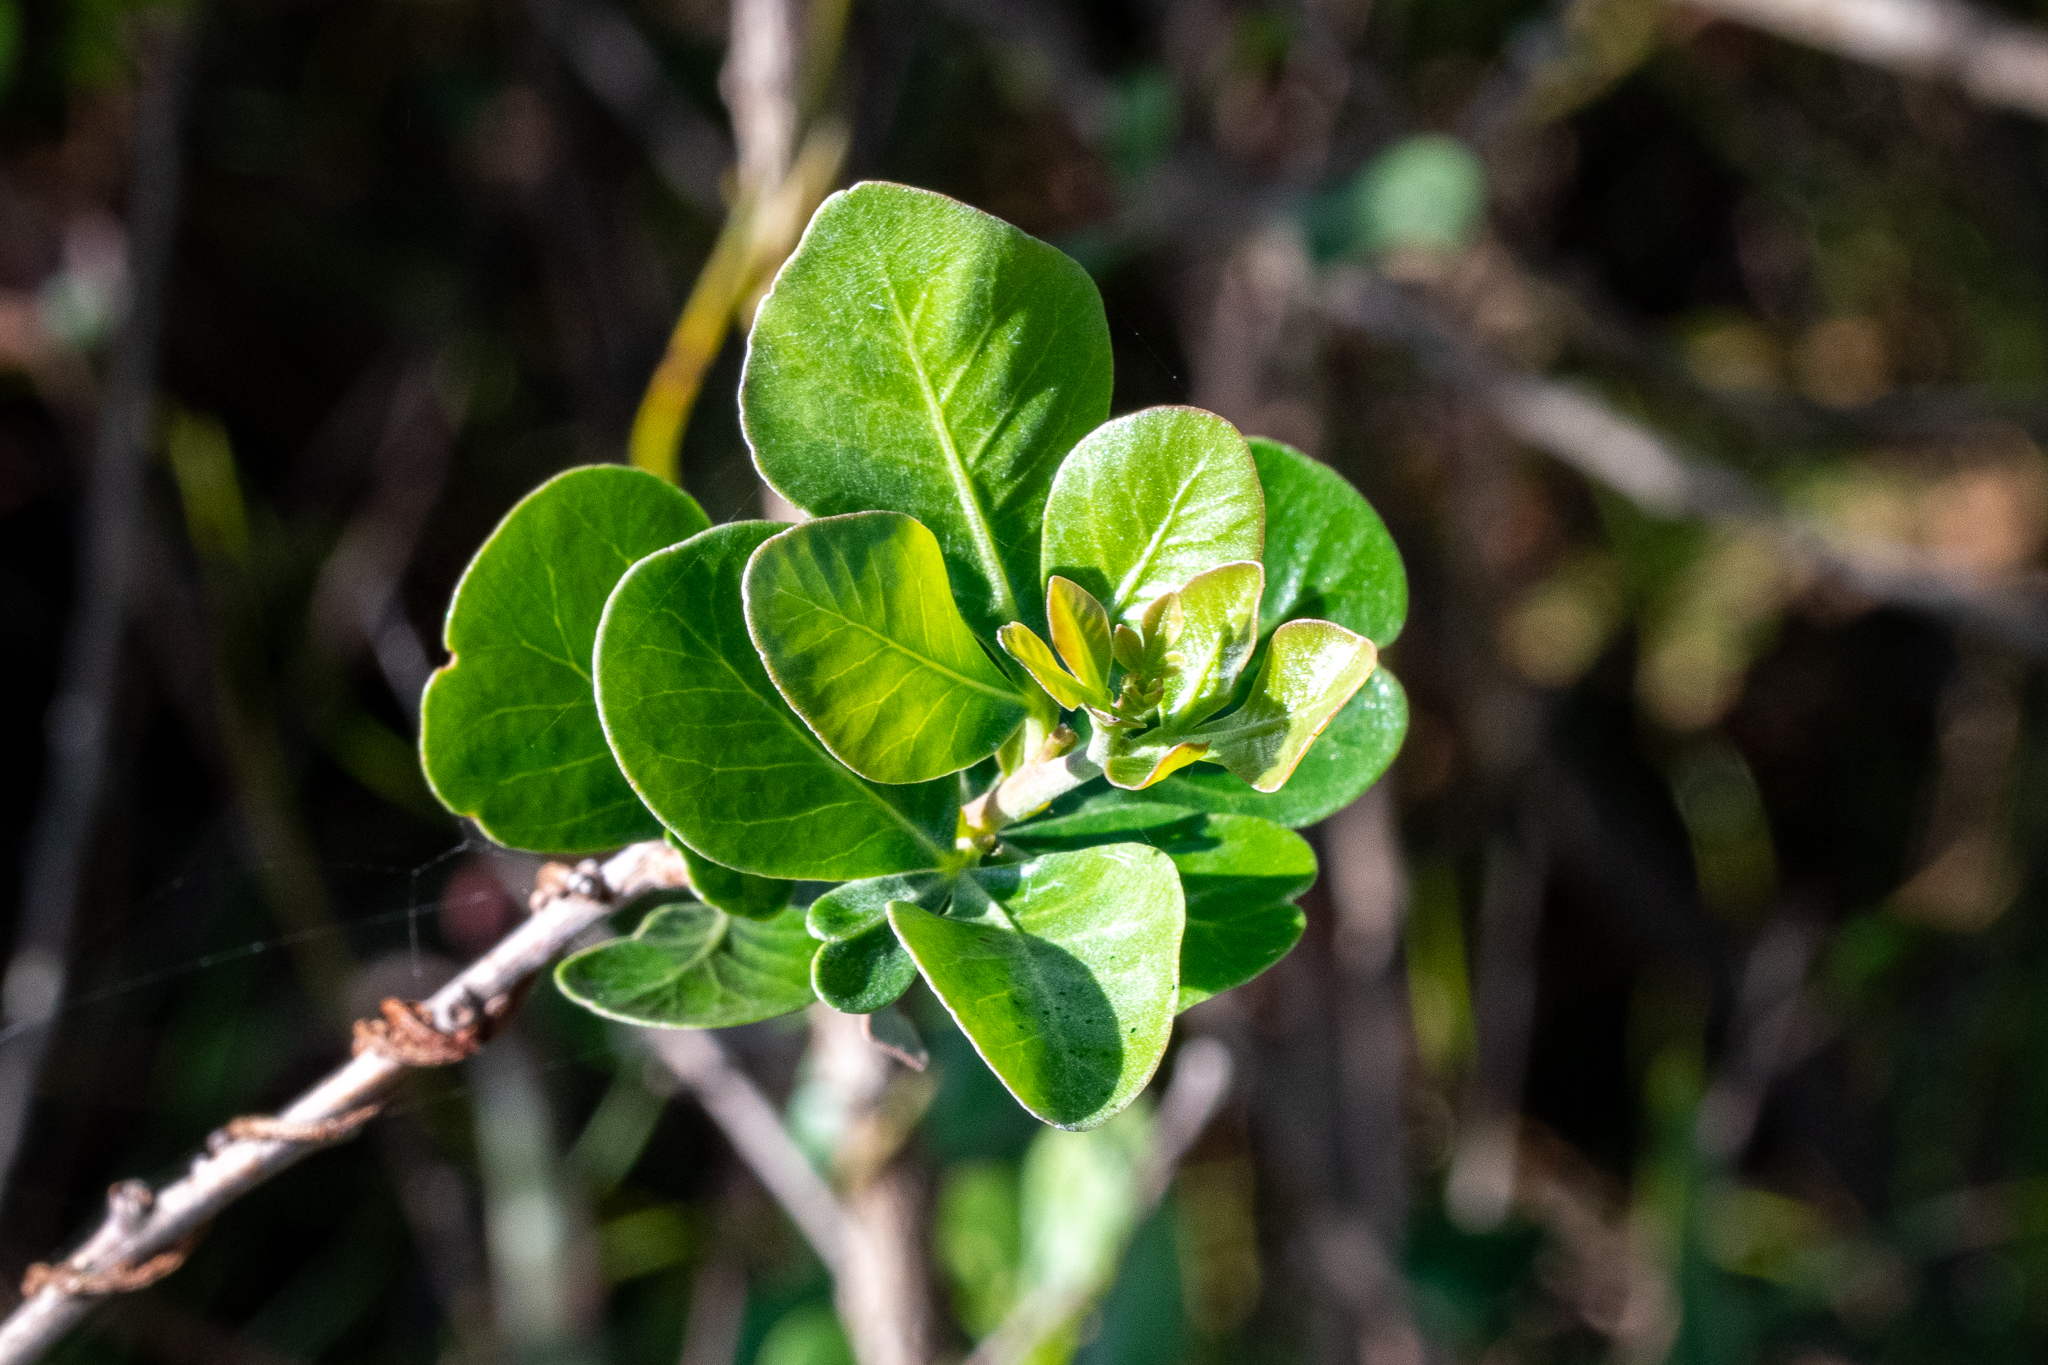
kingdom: Plantae
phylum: Tracheophyta
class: Magnoliopsida
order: Sapindales
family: Anacardiaceae
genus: Searsia
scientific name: Searsia lucida
